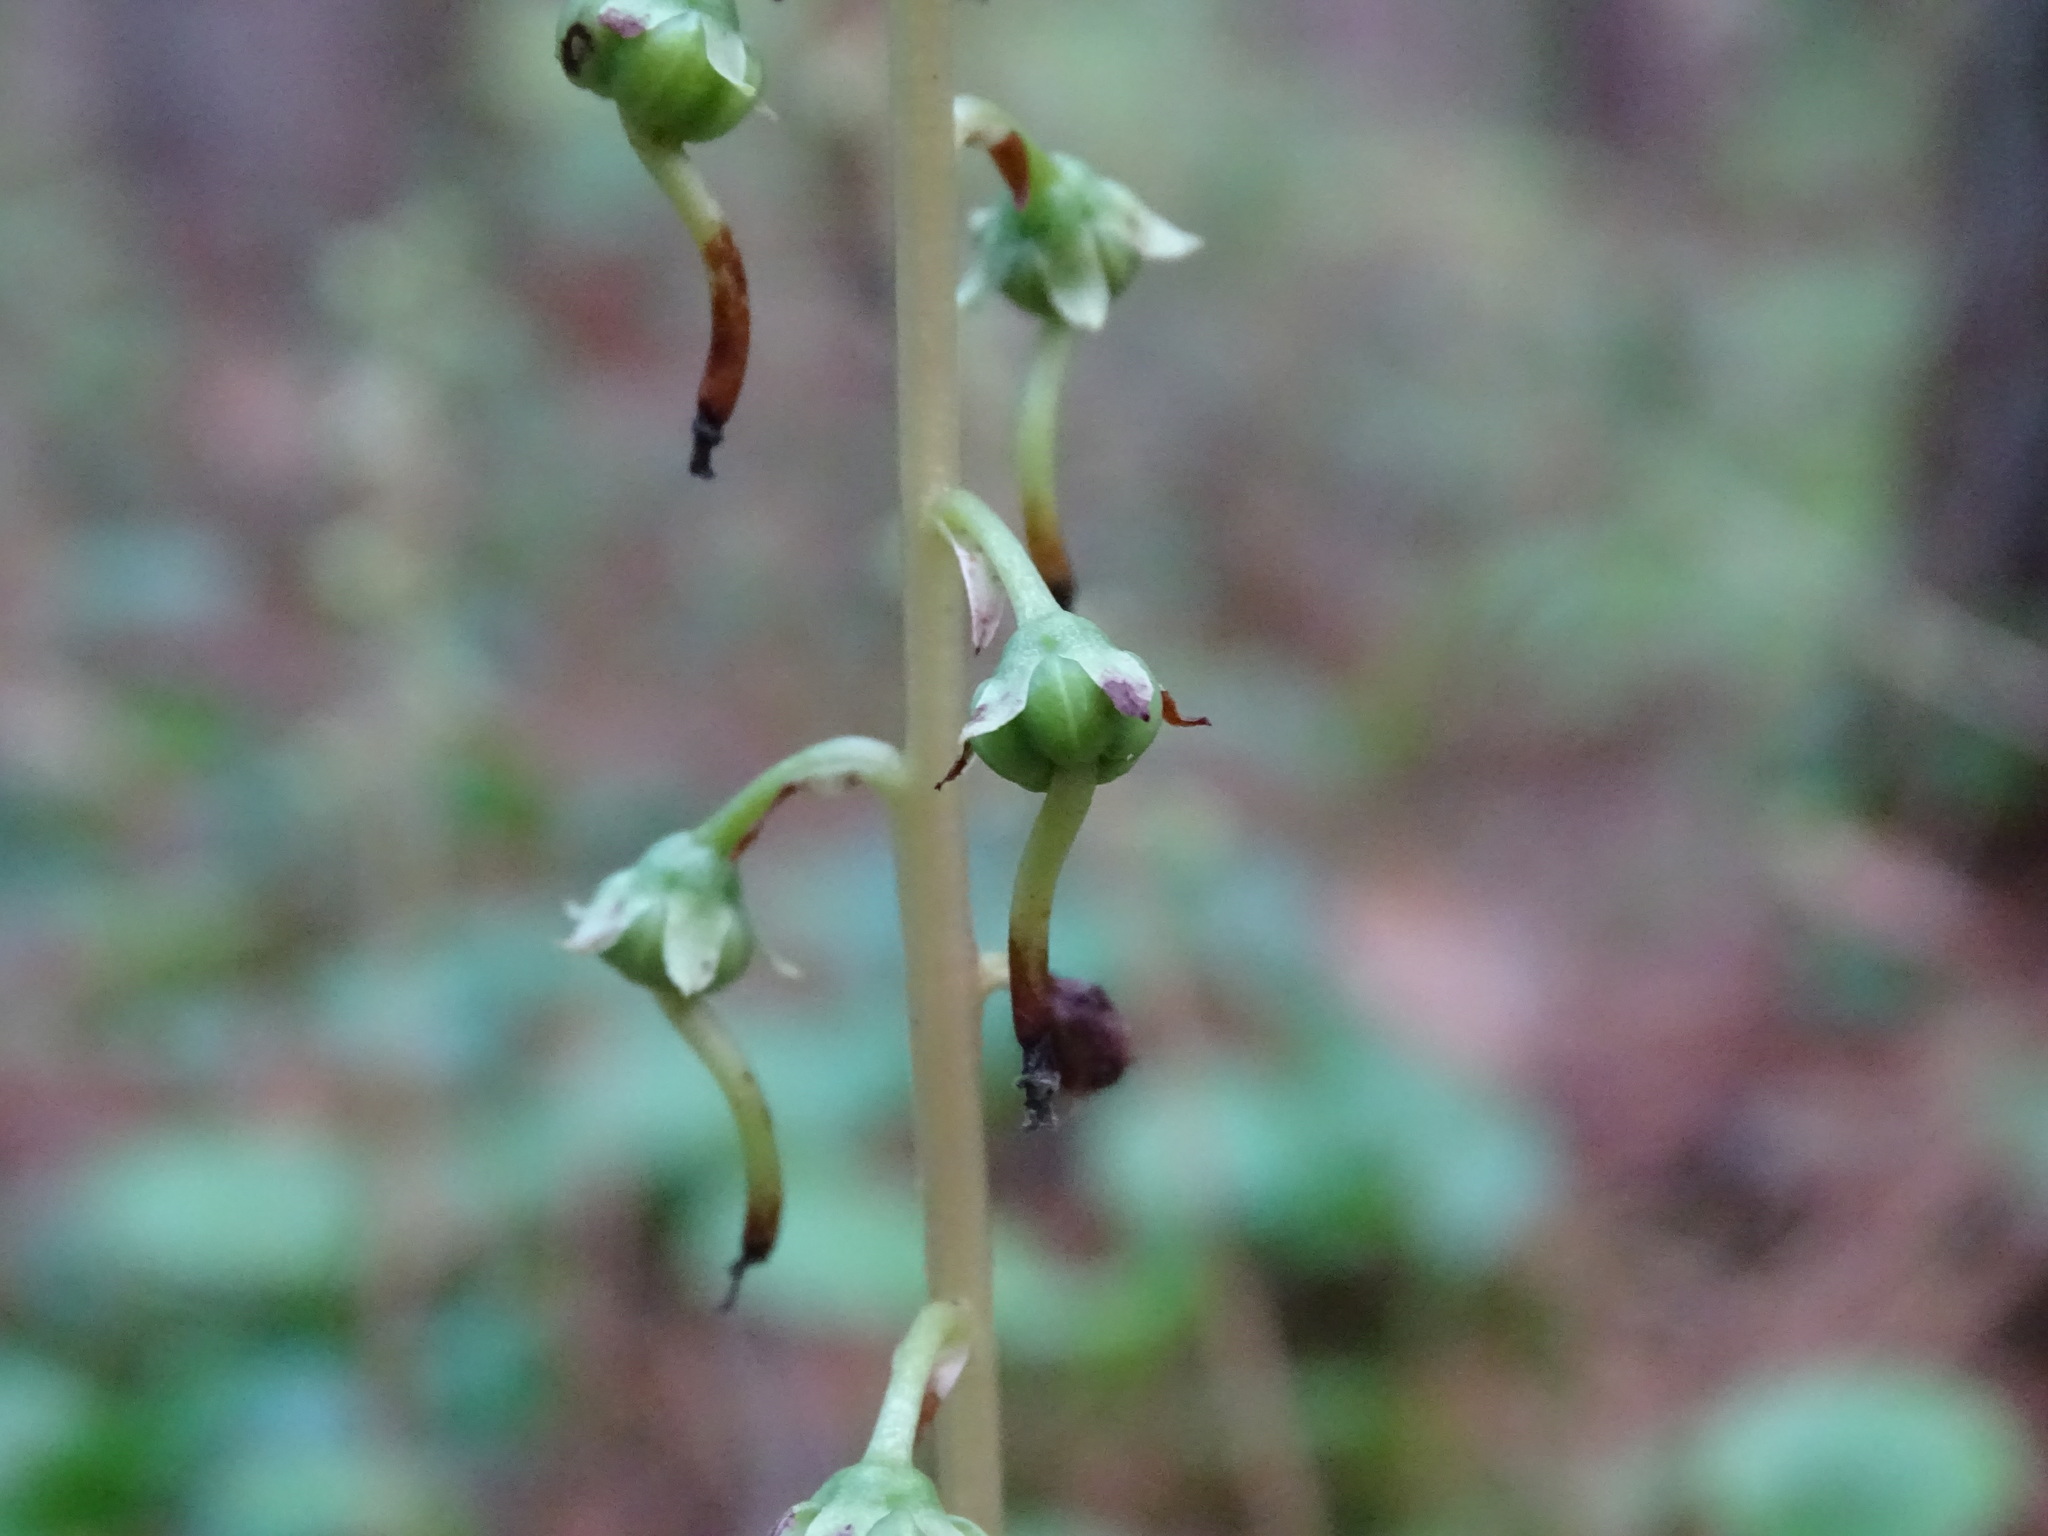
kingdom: Plantae
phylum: Tracheophyta
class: Magnoliopsida
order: Ericales
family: Ericaceae
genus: Pyrola
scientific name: Pyrola americana
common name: American wintergreen
